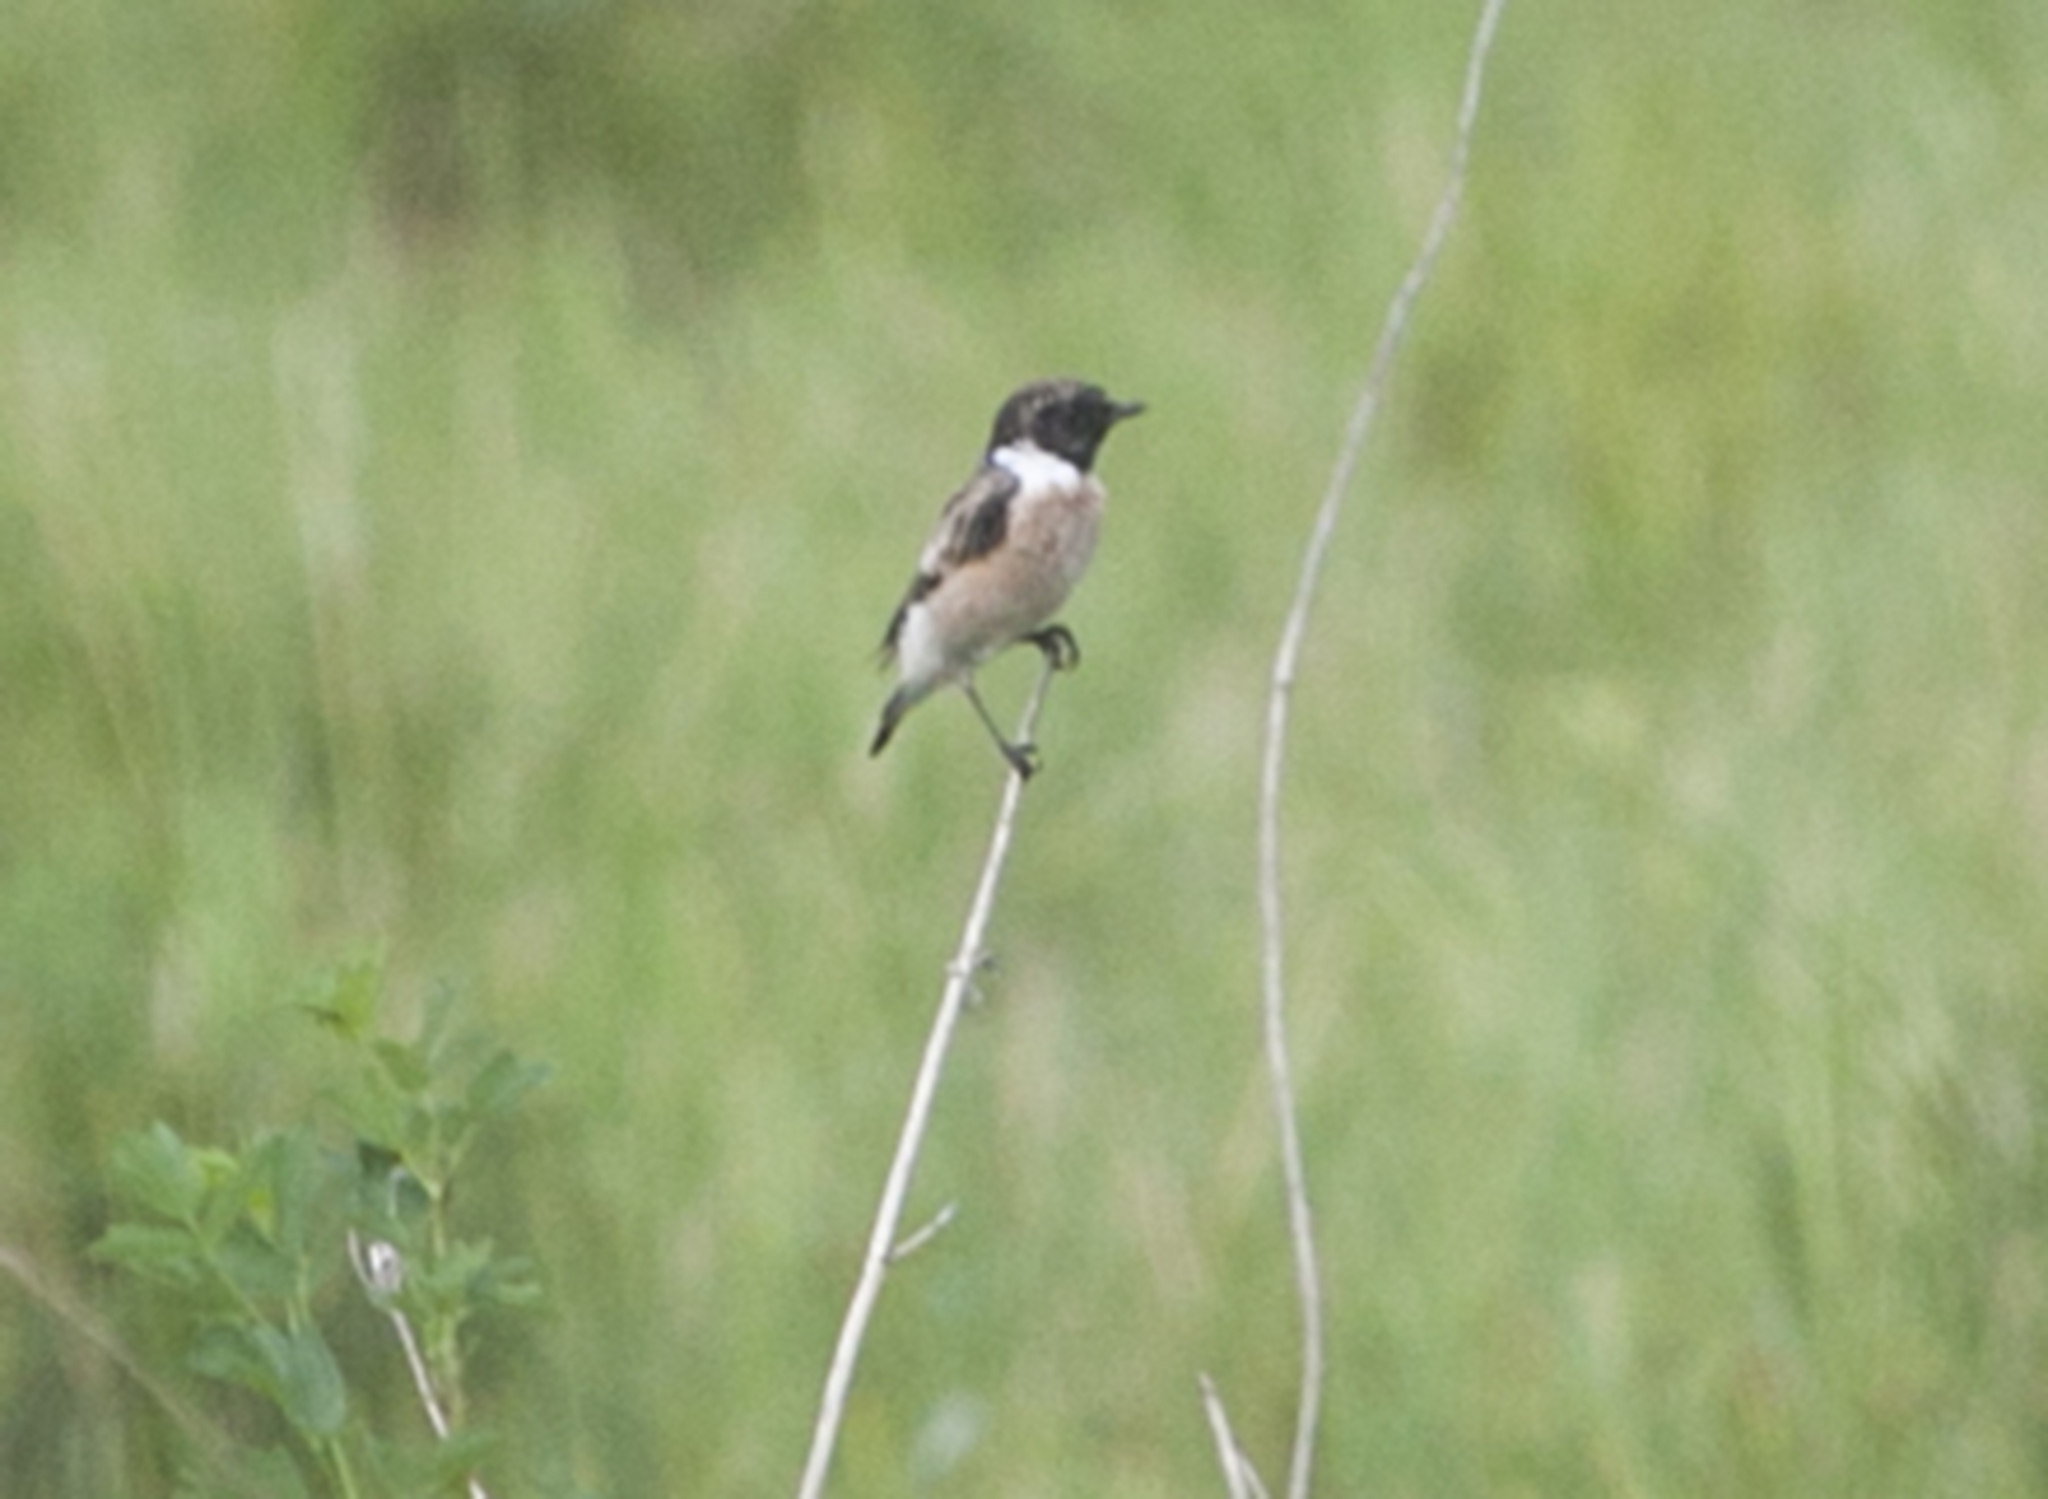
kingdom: Animalia
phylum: Chordata
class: Aves
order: Passeriformes
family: Muscicapidae
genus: Saxicola
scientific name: Saxicola maurus
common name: Siberian stonechat
